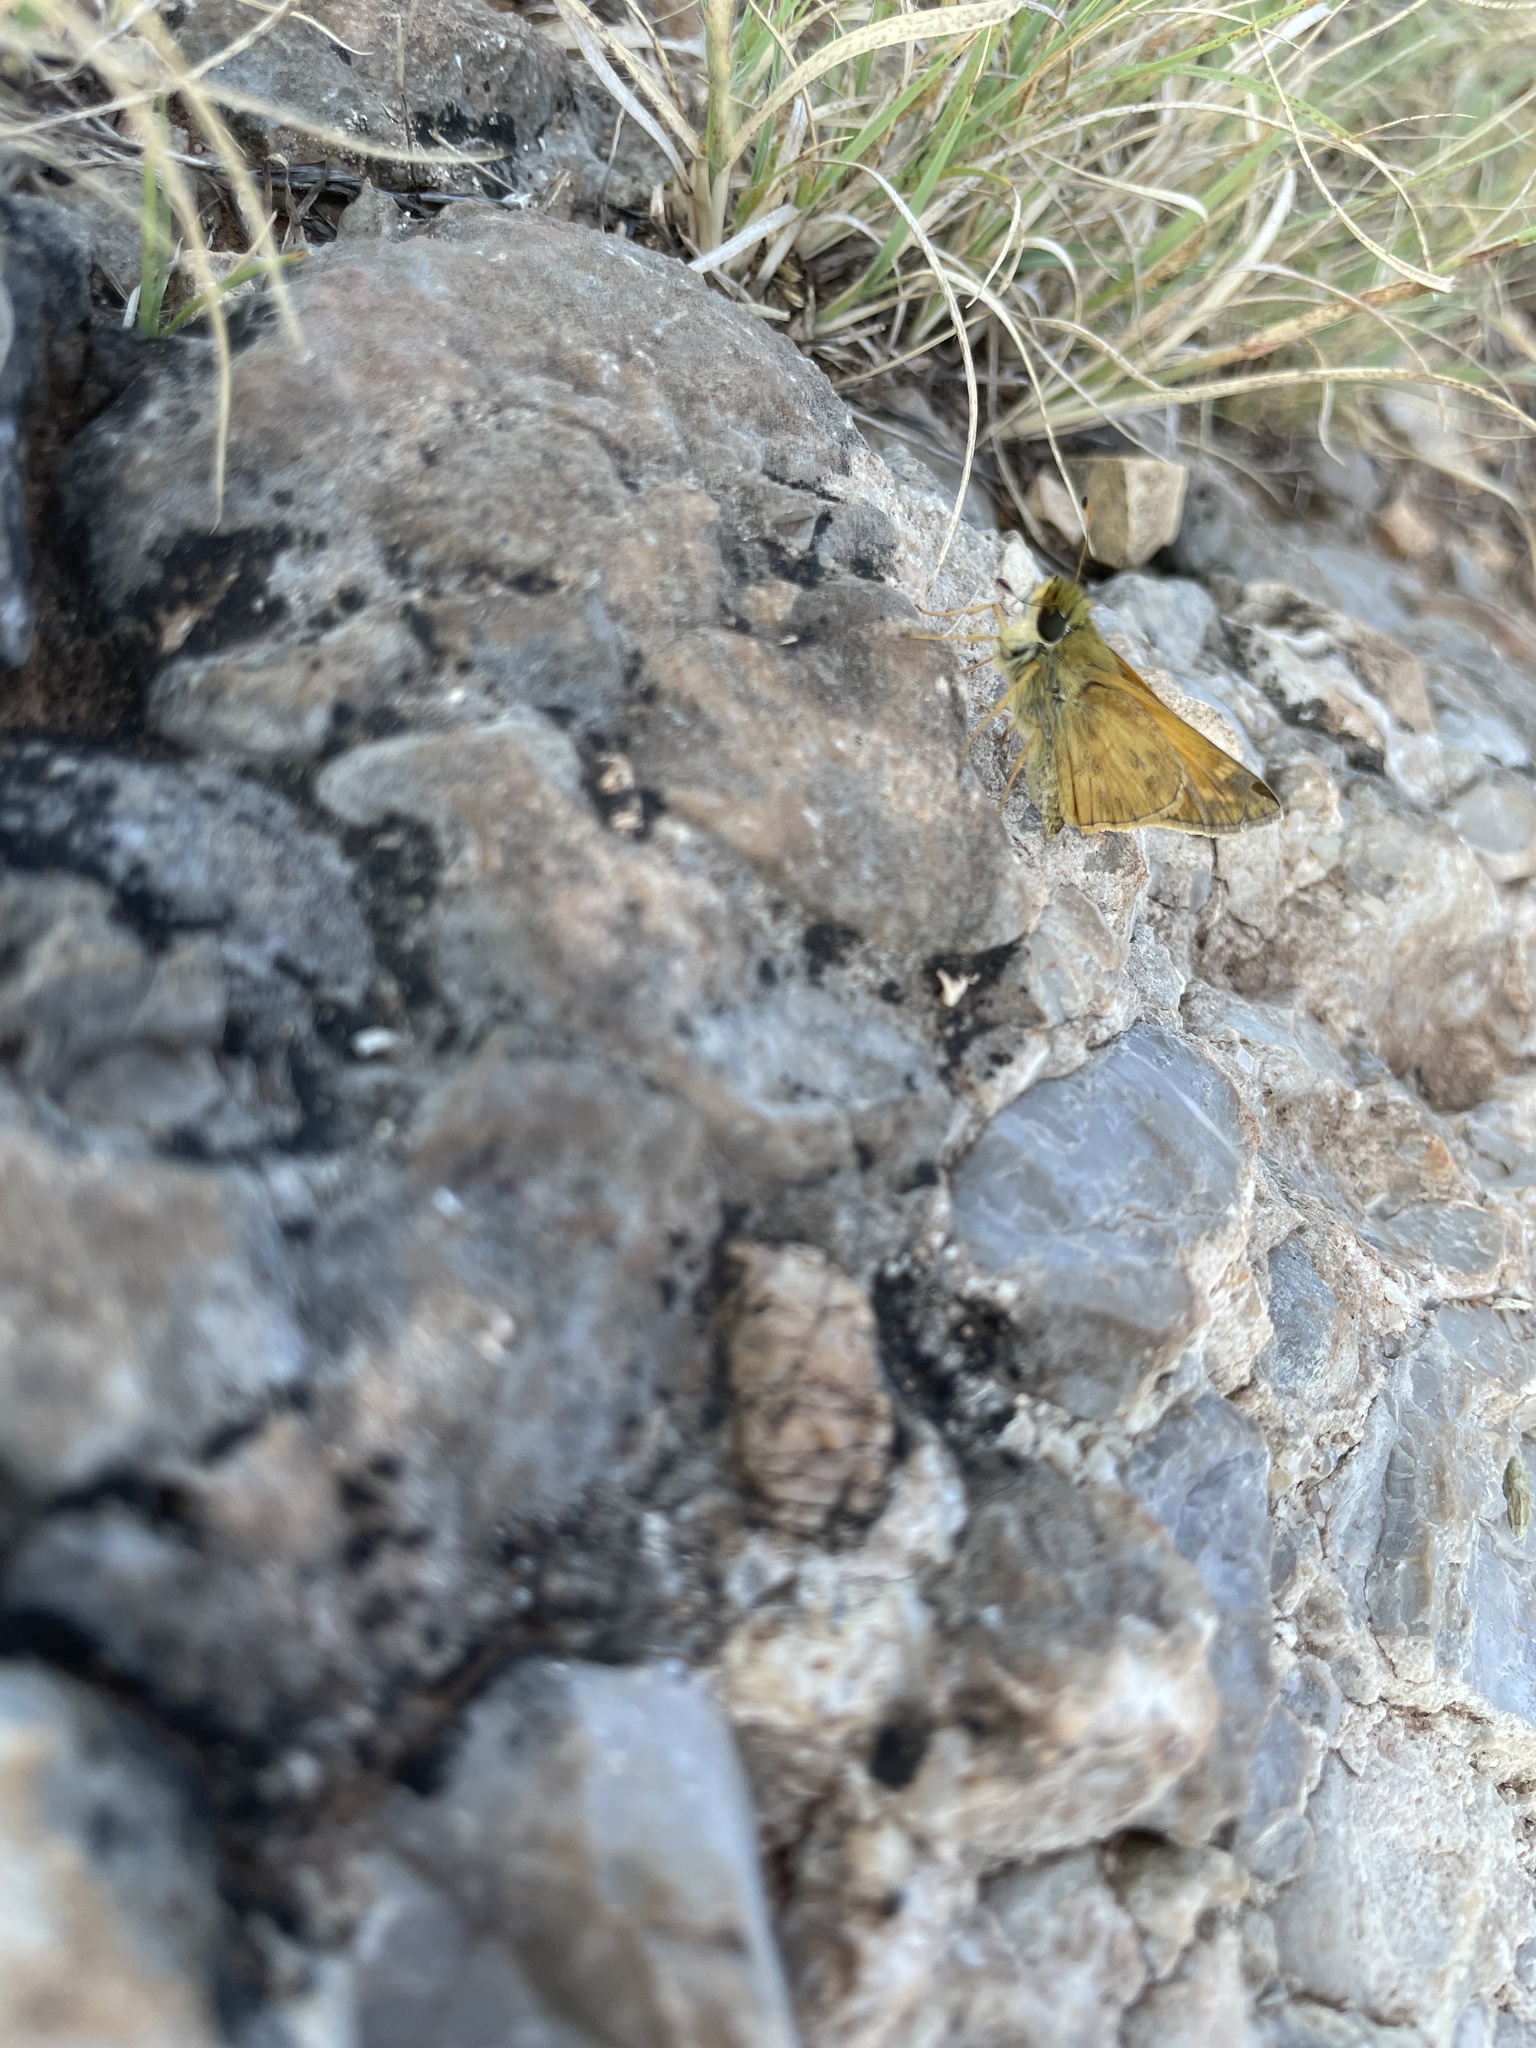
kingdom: Animalia
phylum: Arthropoda
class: Insecta
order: Lepidoptera
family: Hesperiidae
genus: Atalopedes
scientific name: Atalopedes
